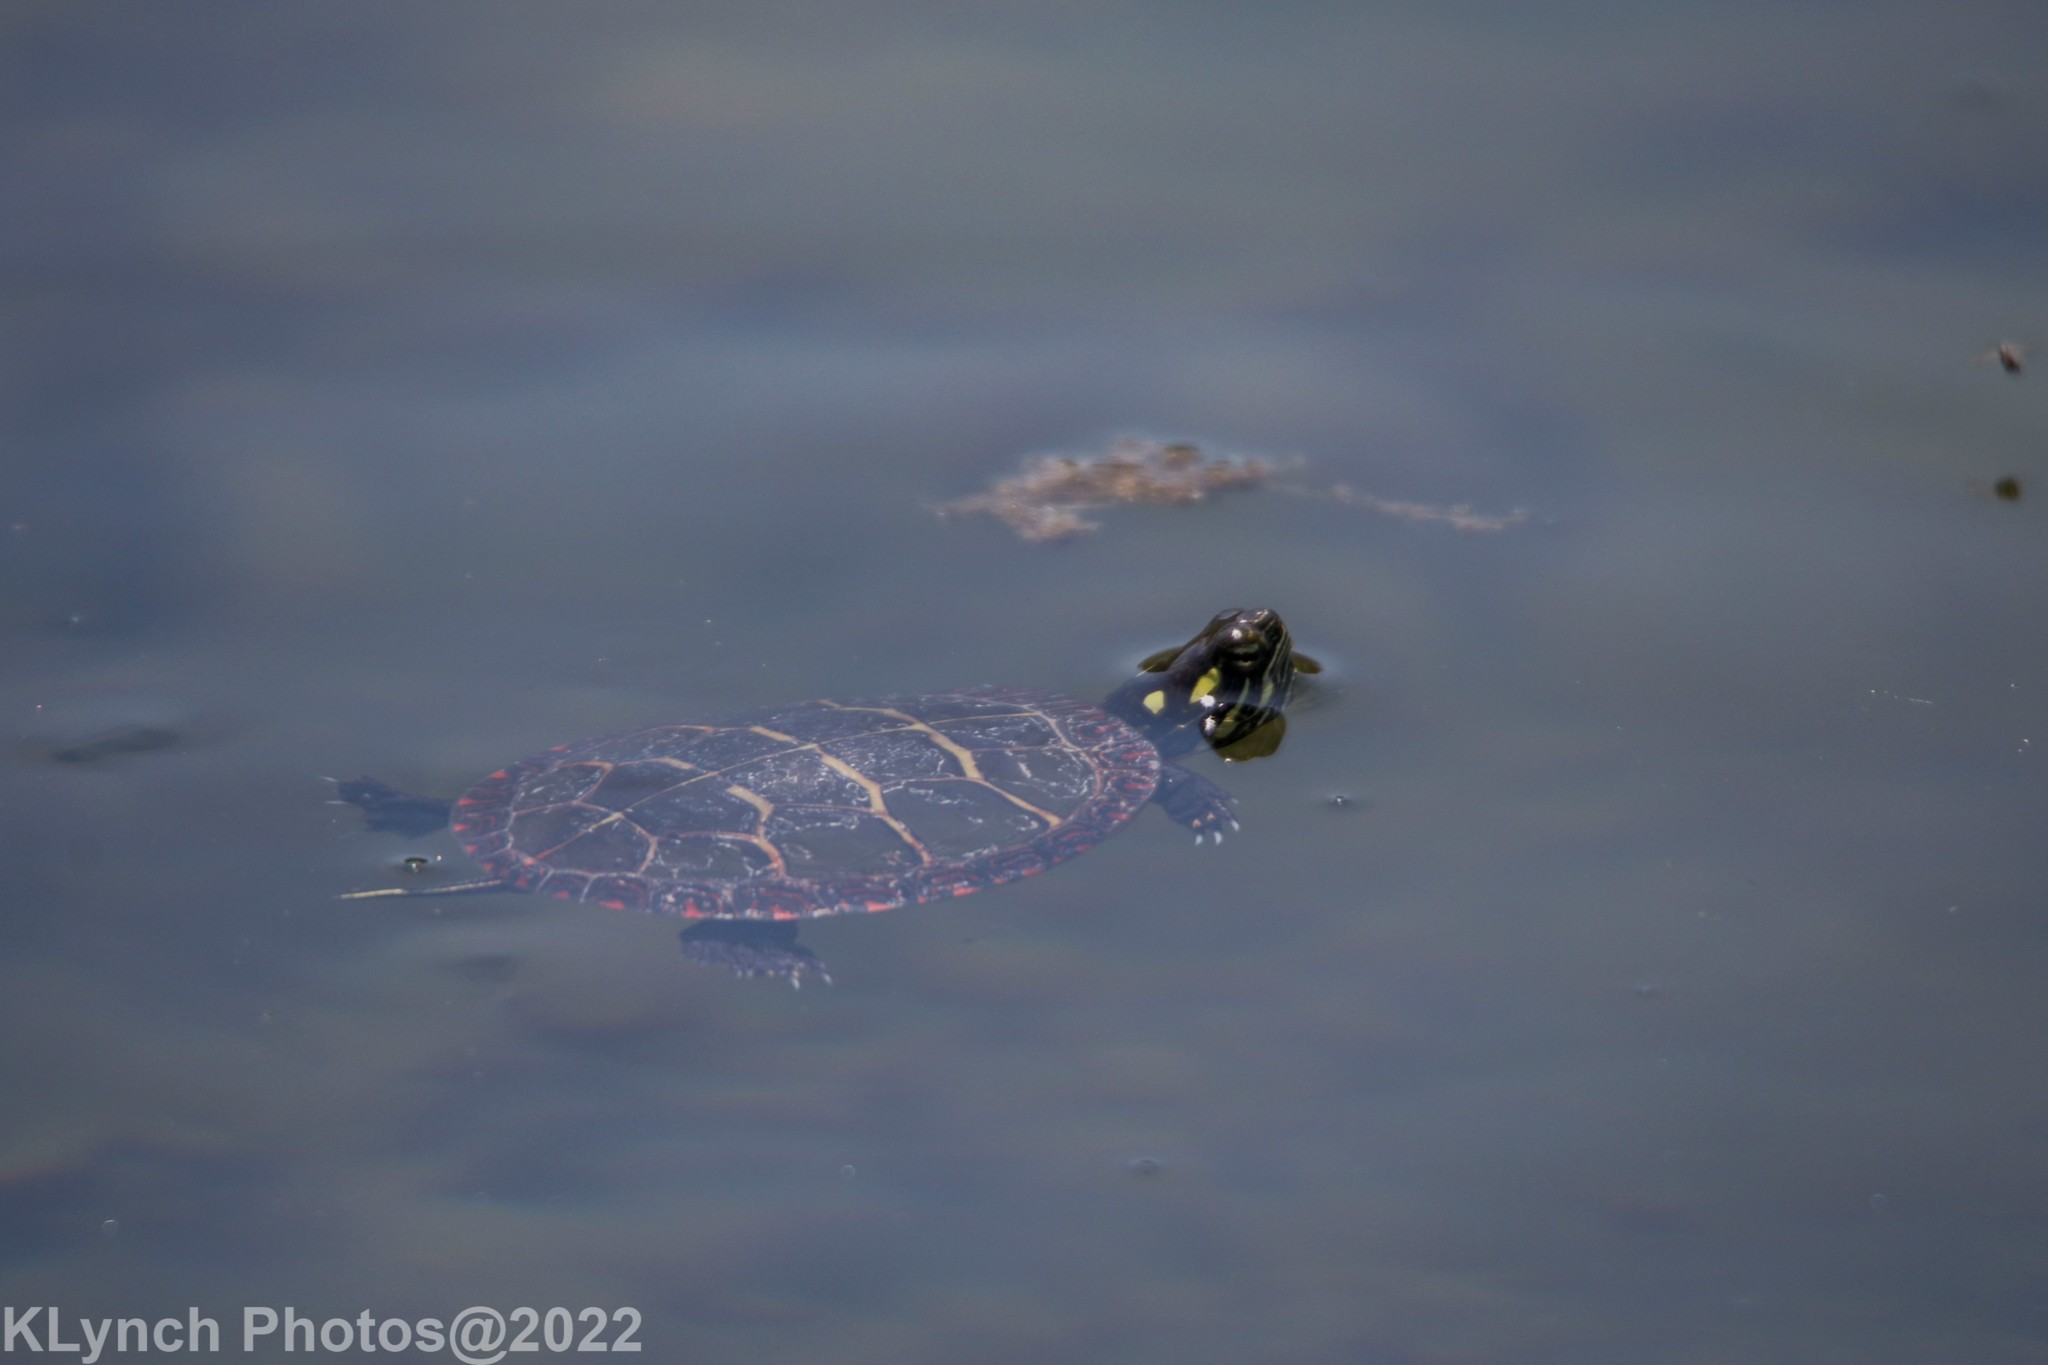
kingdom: Animalia
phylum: Chordata
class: Testudines
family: Emydidae
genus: Chrysemys
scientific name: Chrysemys picta
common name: Painted turtle
